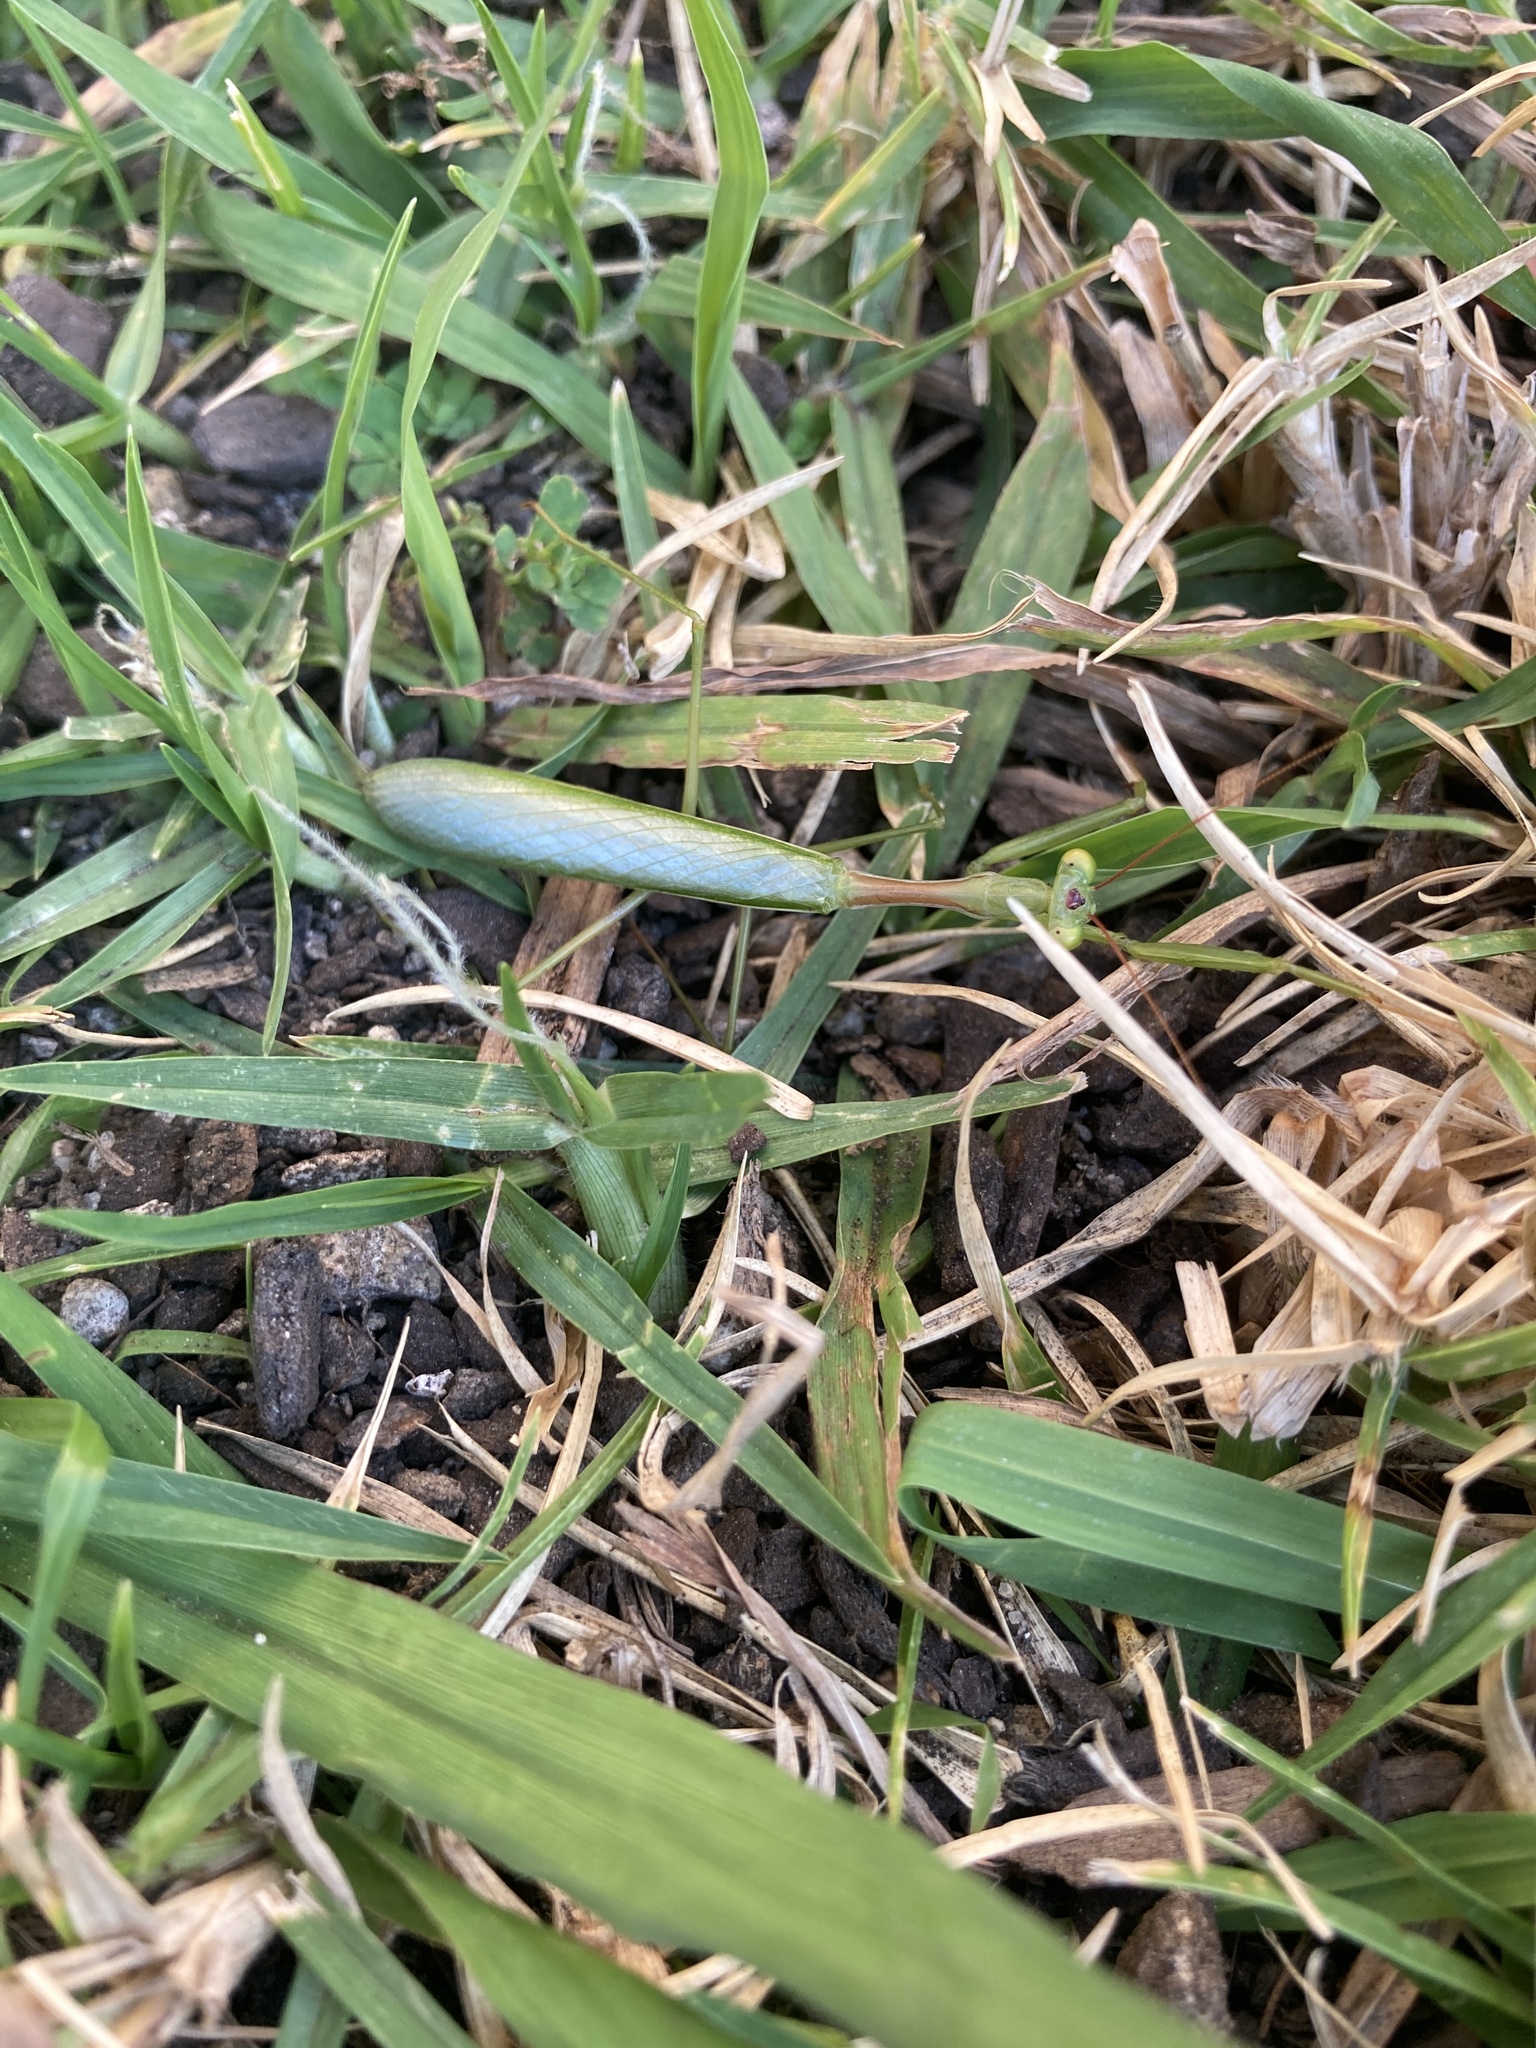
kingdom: Animalia
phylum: Arthropoda
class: Insecta
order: Mantodea
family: Miomantidae
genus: Miomantis
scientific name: Miomantis caffra
